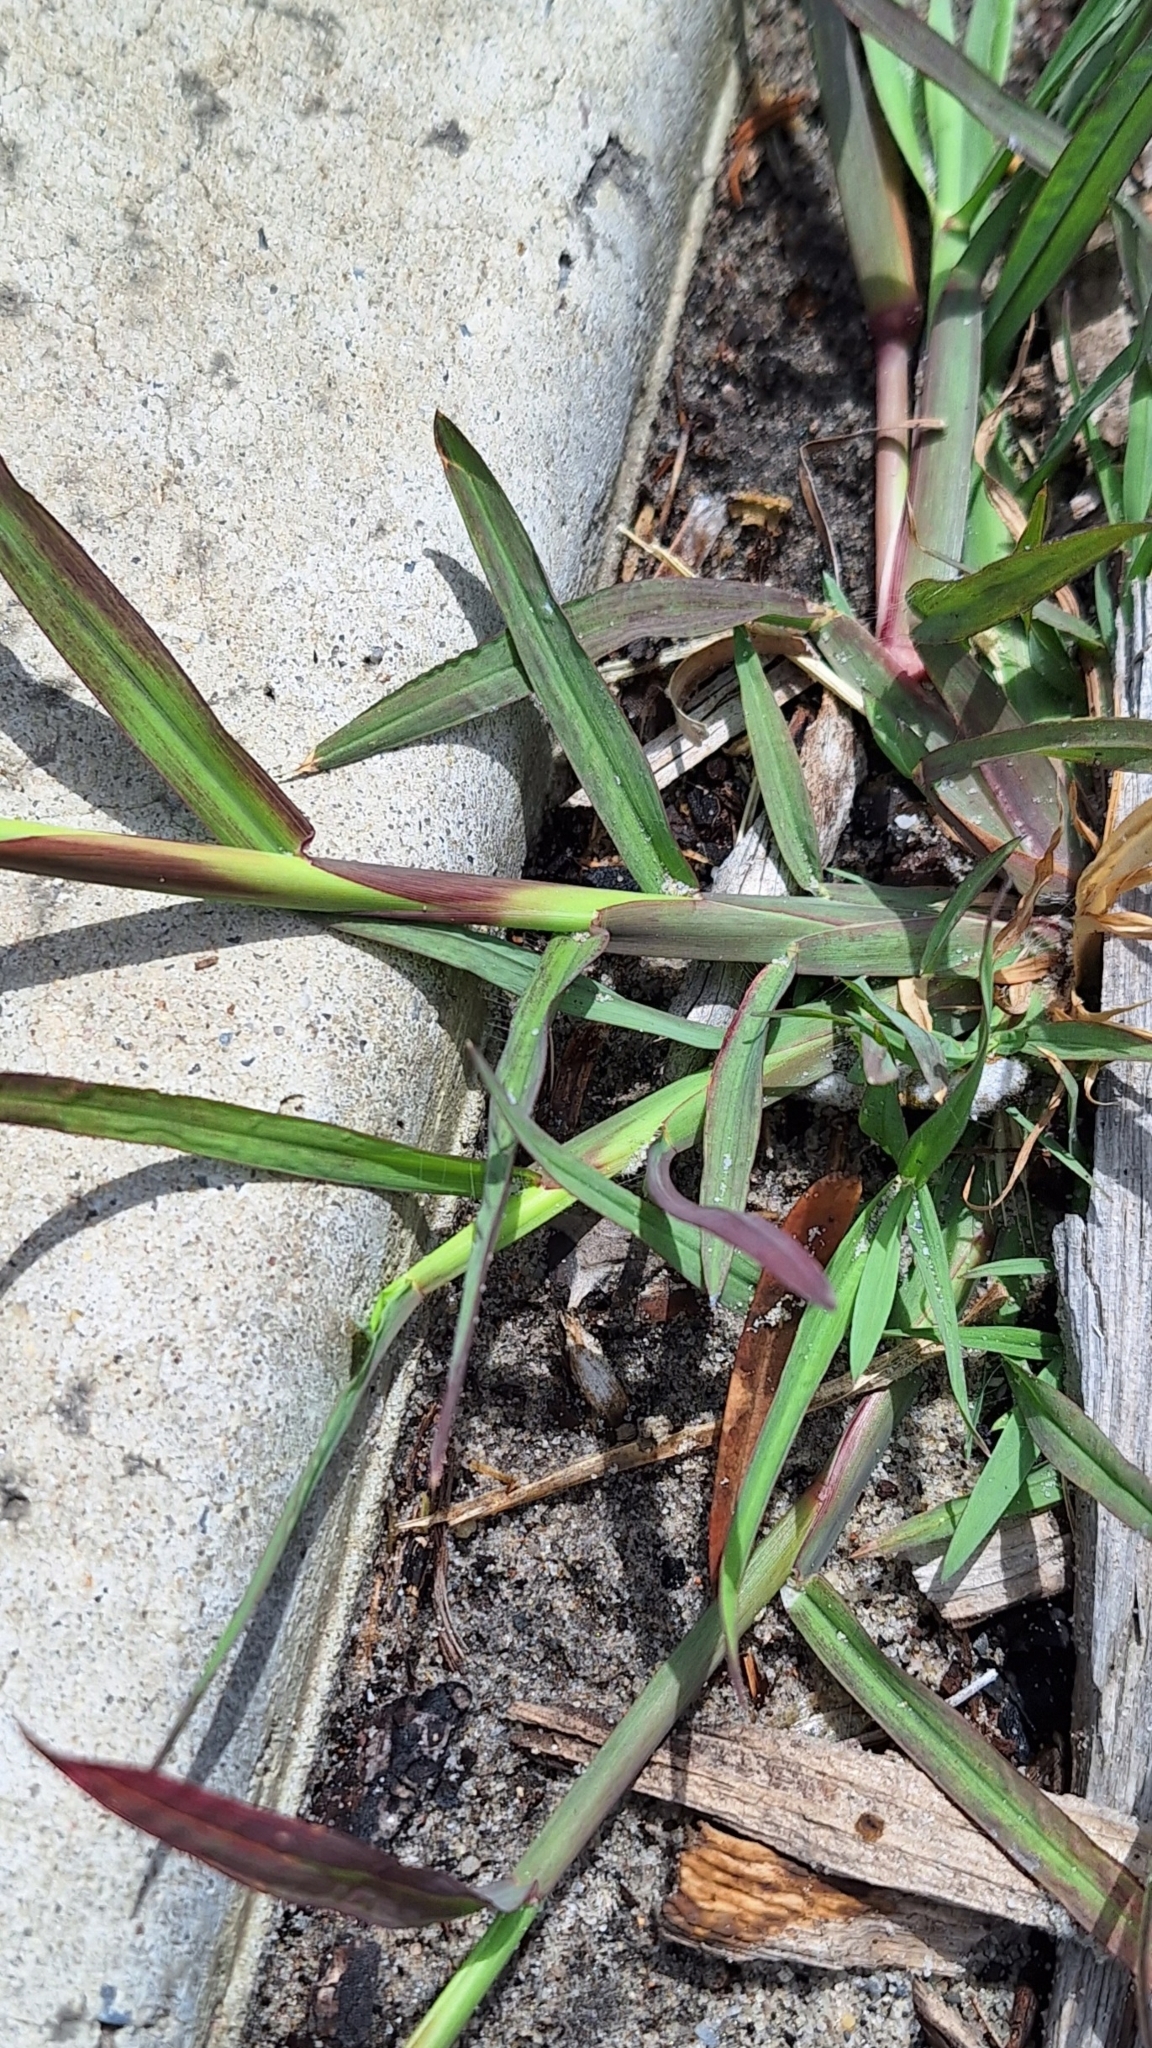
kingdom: Plantae
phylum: Tracheophyta
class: Liliopsida
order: Poales
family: Poaceae
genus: Chloris
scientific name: Chloris virgata
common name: Feathery rhodes-grass
